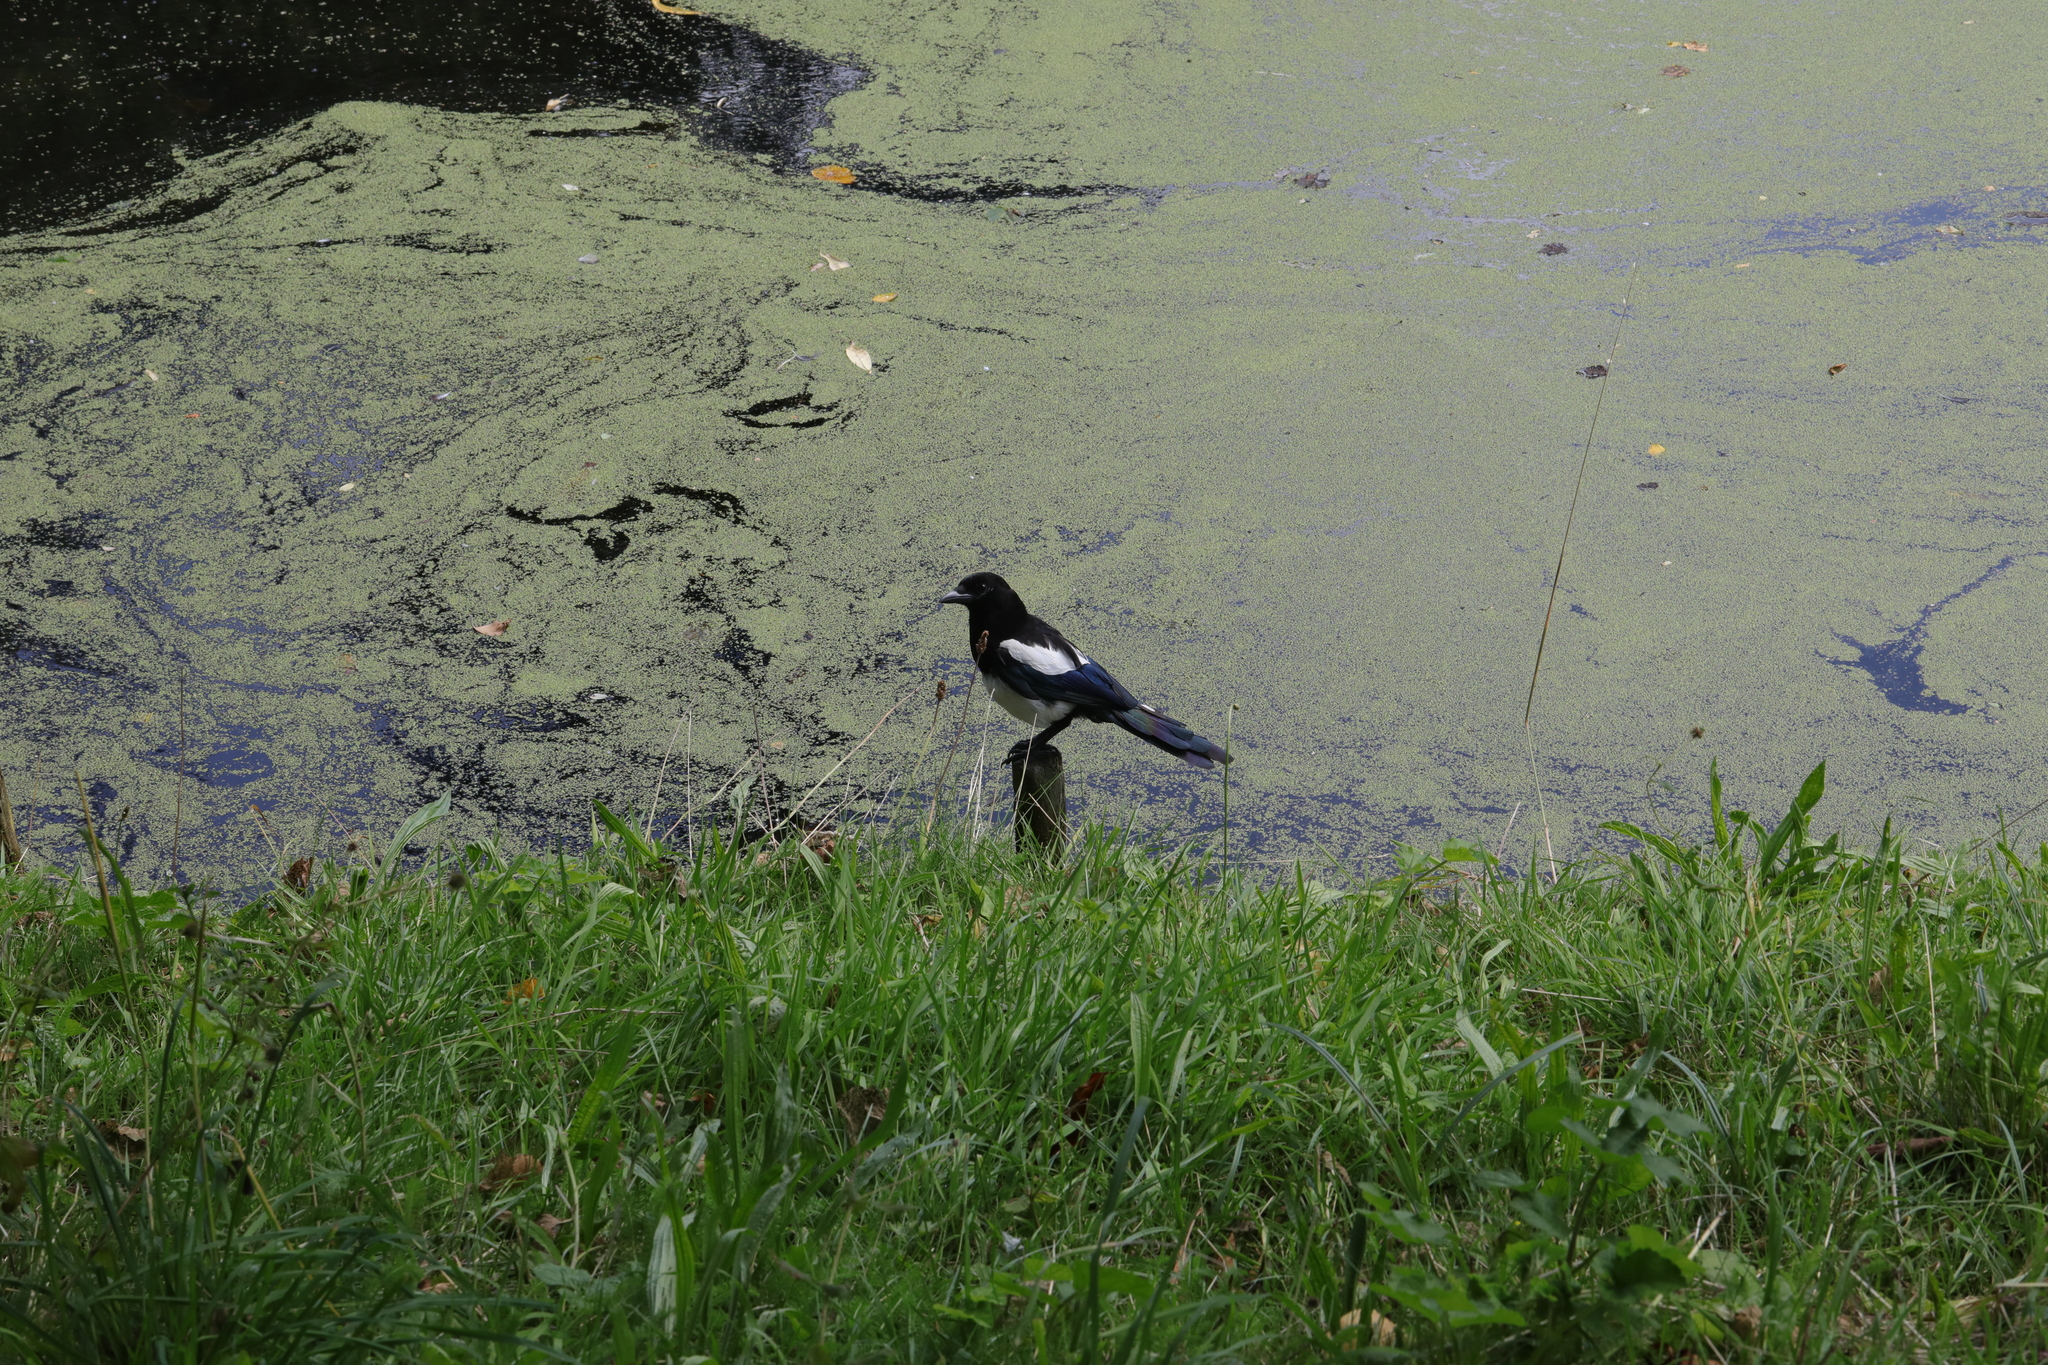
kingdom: Animalia
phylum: Chordata
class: Aves
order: Passeriformes
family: Corvidae
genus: Pica
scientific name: Pica pica
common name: Eurasian magpie
